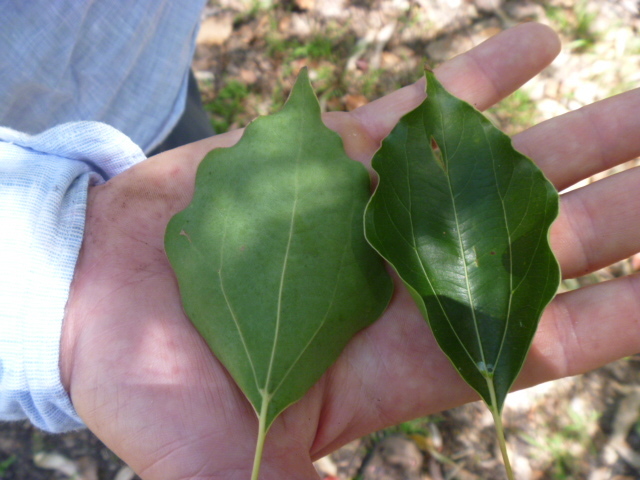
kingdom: Plantae
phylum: Tracheophyta
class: Magnoliopsida
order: Laurales
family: Lauraceae
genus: Cinnamomum
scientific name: Cinnamomum camphora
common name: Camphortree
